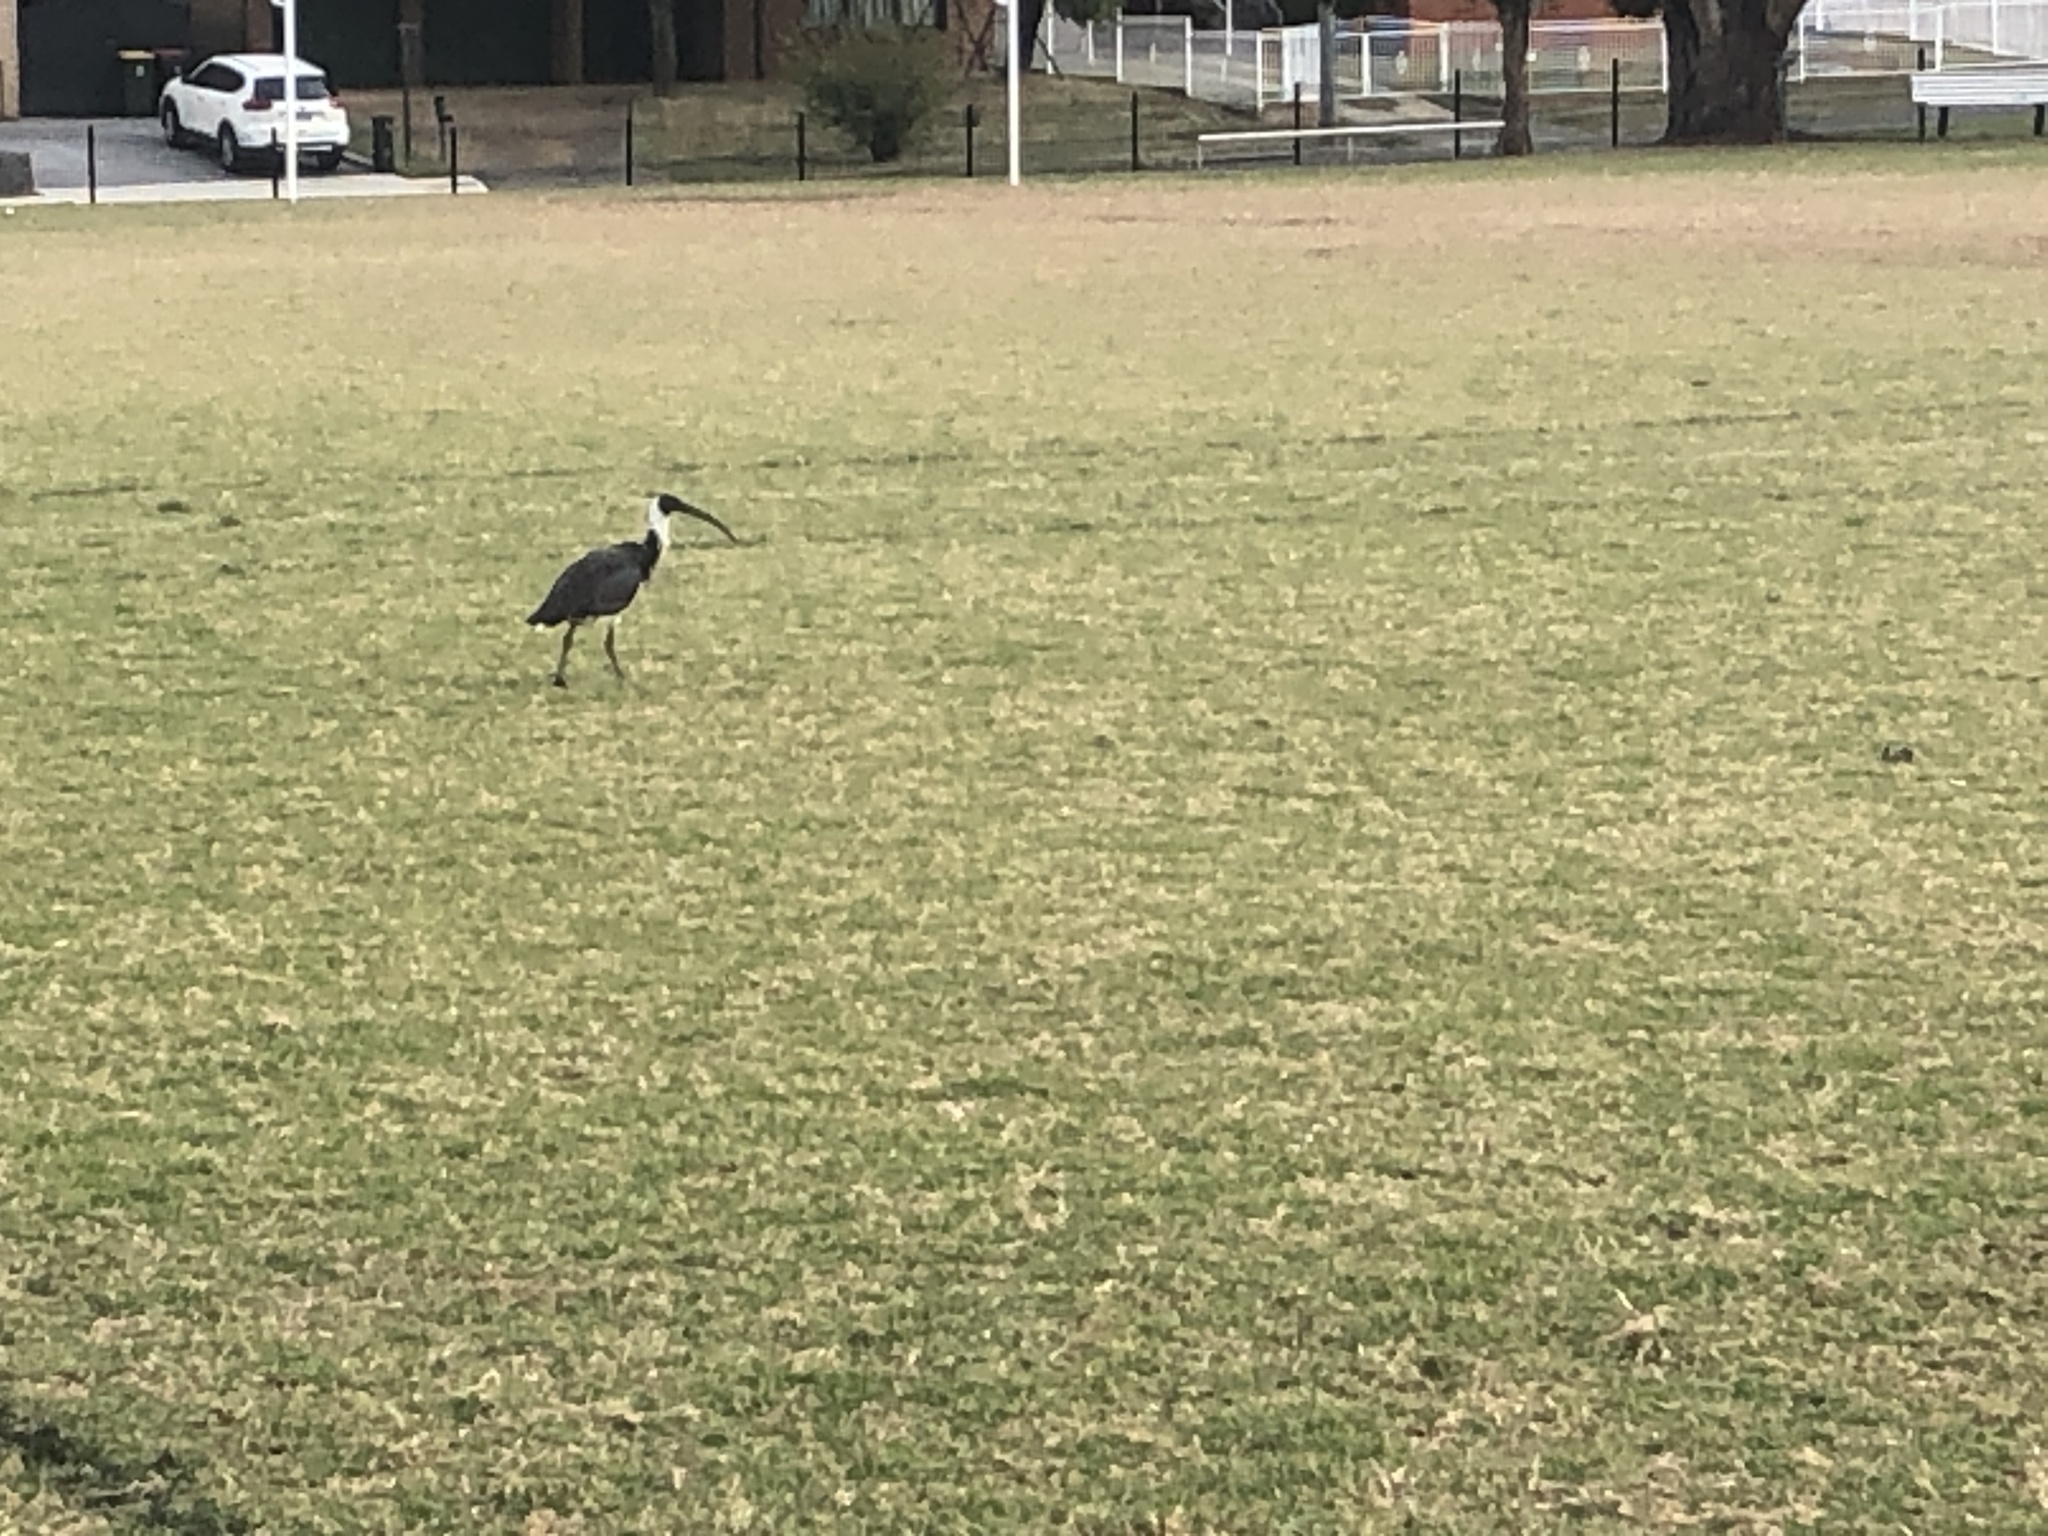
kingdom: Animalia
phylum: Chordata
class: Aves
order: Pelecaniformes
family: Threskiornithidae
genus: Threskiornis
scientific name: Threskiornis spinicollis
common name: Straw-necked ibis
